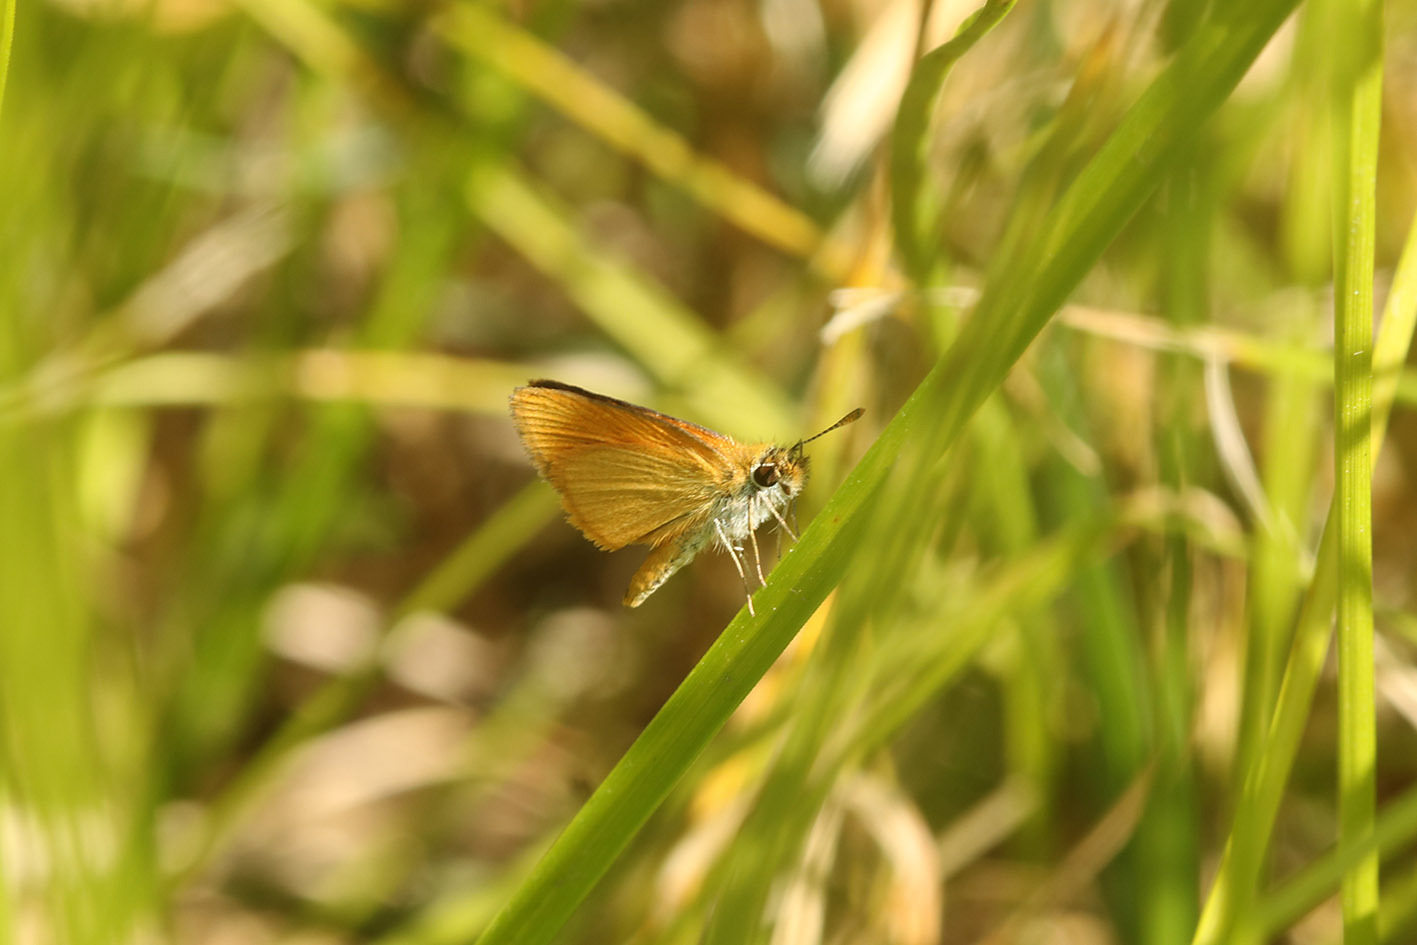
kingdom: Animalia
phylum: Arthropoda
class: Insecta
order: Lepidoptera
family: Hesperiidae
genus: Ancyloxypha
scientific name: Ancyloxypha nitedula
